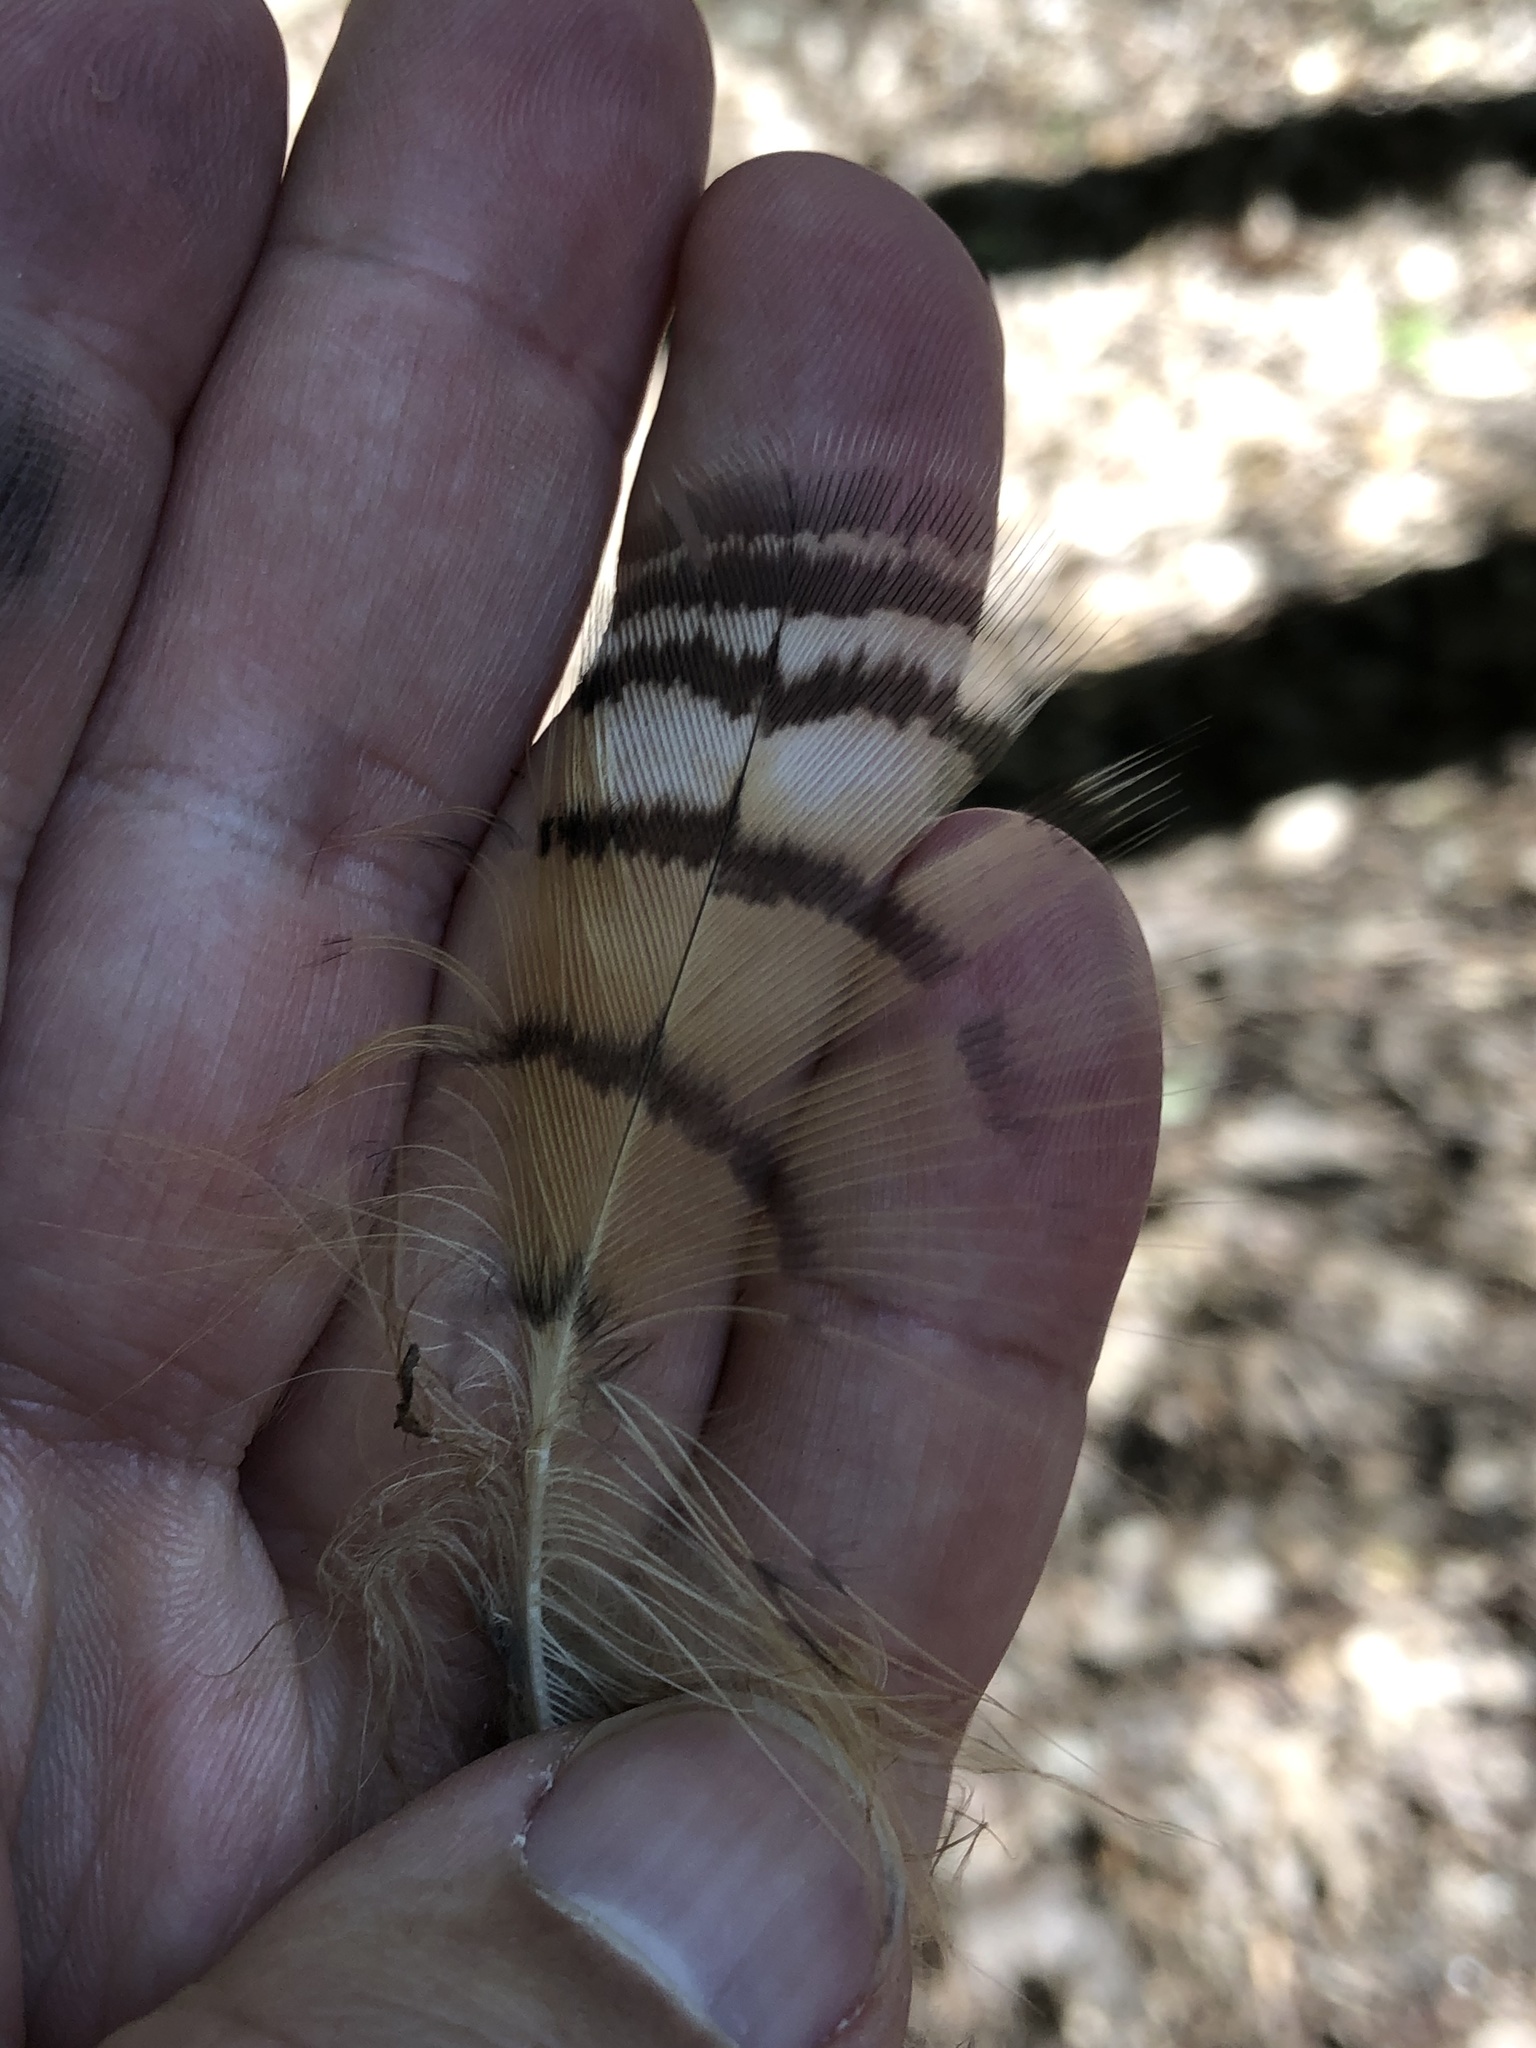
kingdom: Animalia
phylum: Chordata
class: Aves
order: Strigiformes
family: Strigidae
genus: Bubo
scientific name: Bubo virginianus
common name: Great horned owl
